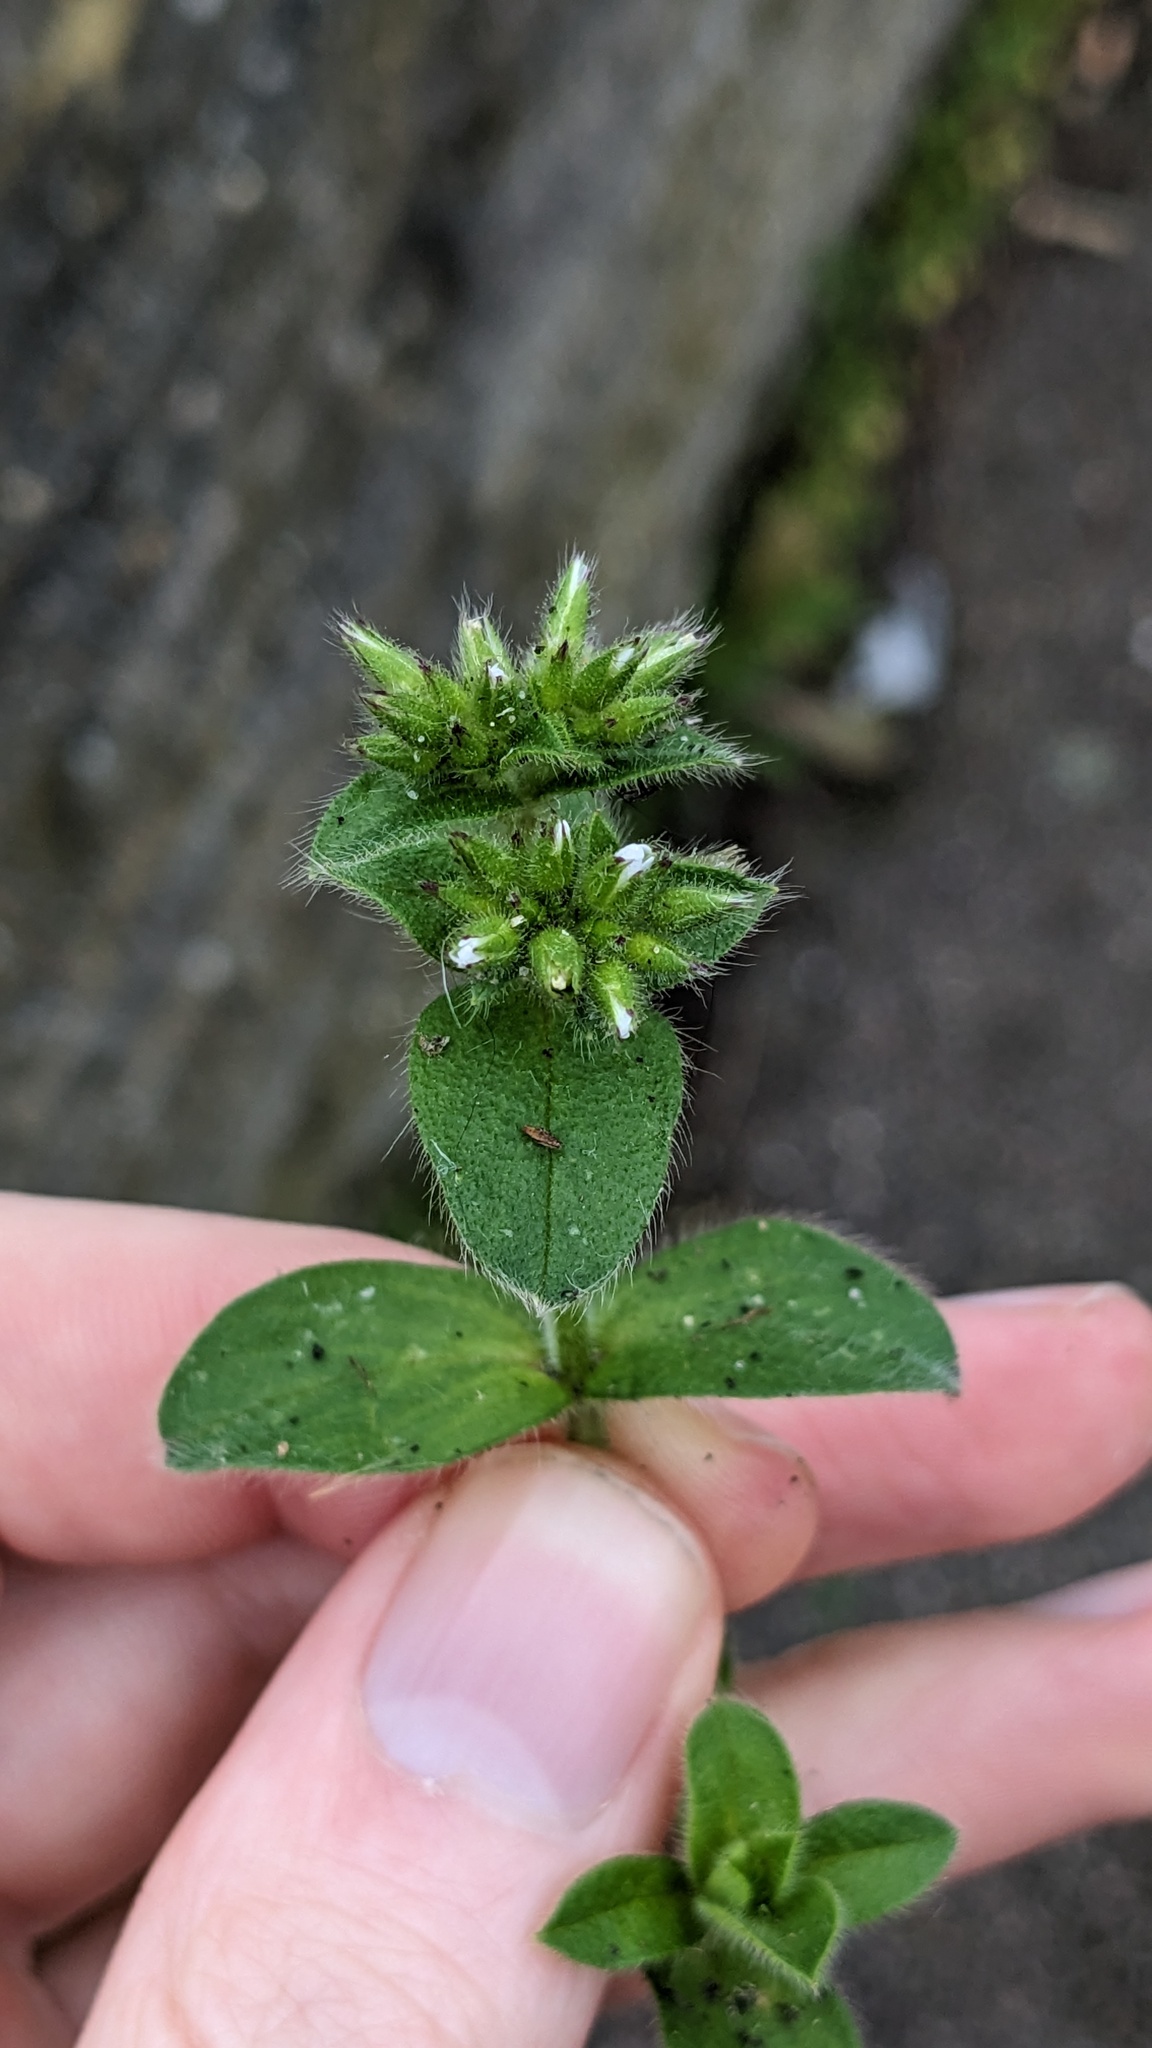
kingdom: Plantae
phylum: Tracheophyta
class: Magnoliopsida
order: Caryophyllales
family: Caryophyllaceae
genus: Cerastium
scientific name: Cerastium glomeratum
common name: Sticky chickweed
